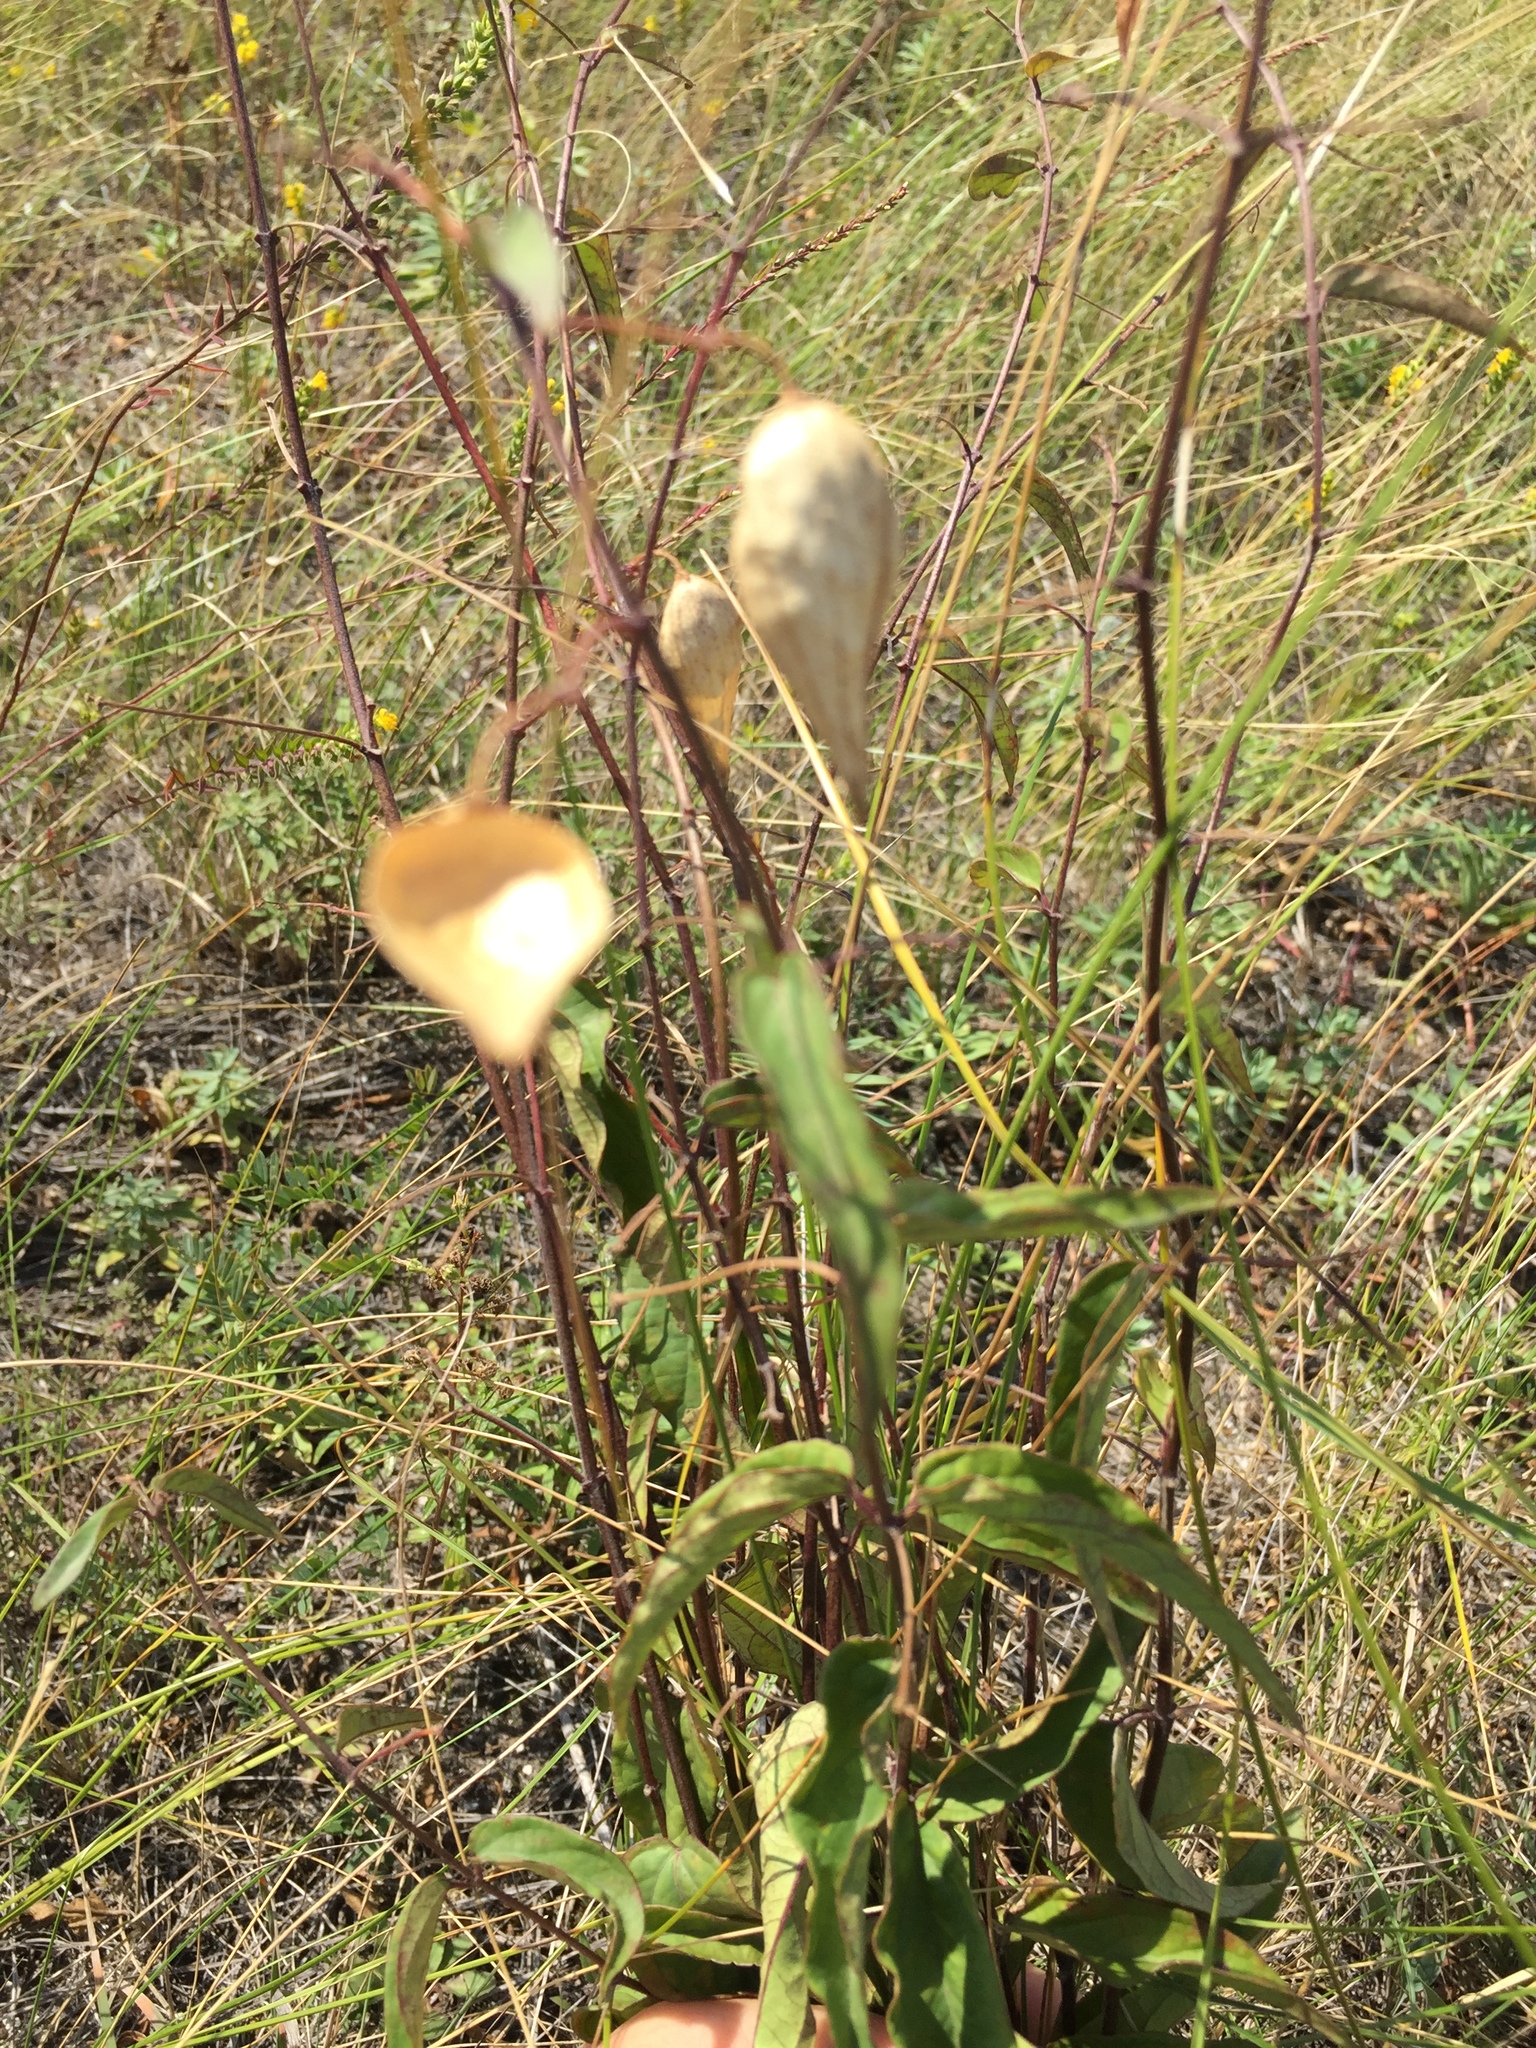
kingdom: Plantae
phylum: Tracheophyta
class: Magnoliopsida
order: Gentianales
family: Apocynaceae
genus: Vincetoxicum
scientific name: Vincetoxicum hirundinaria
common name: White swallowwort
